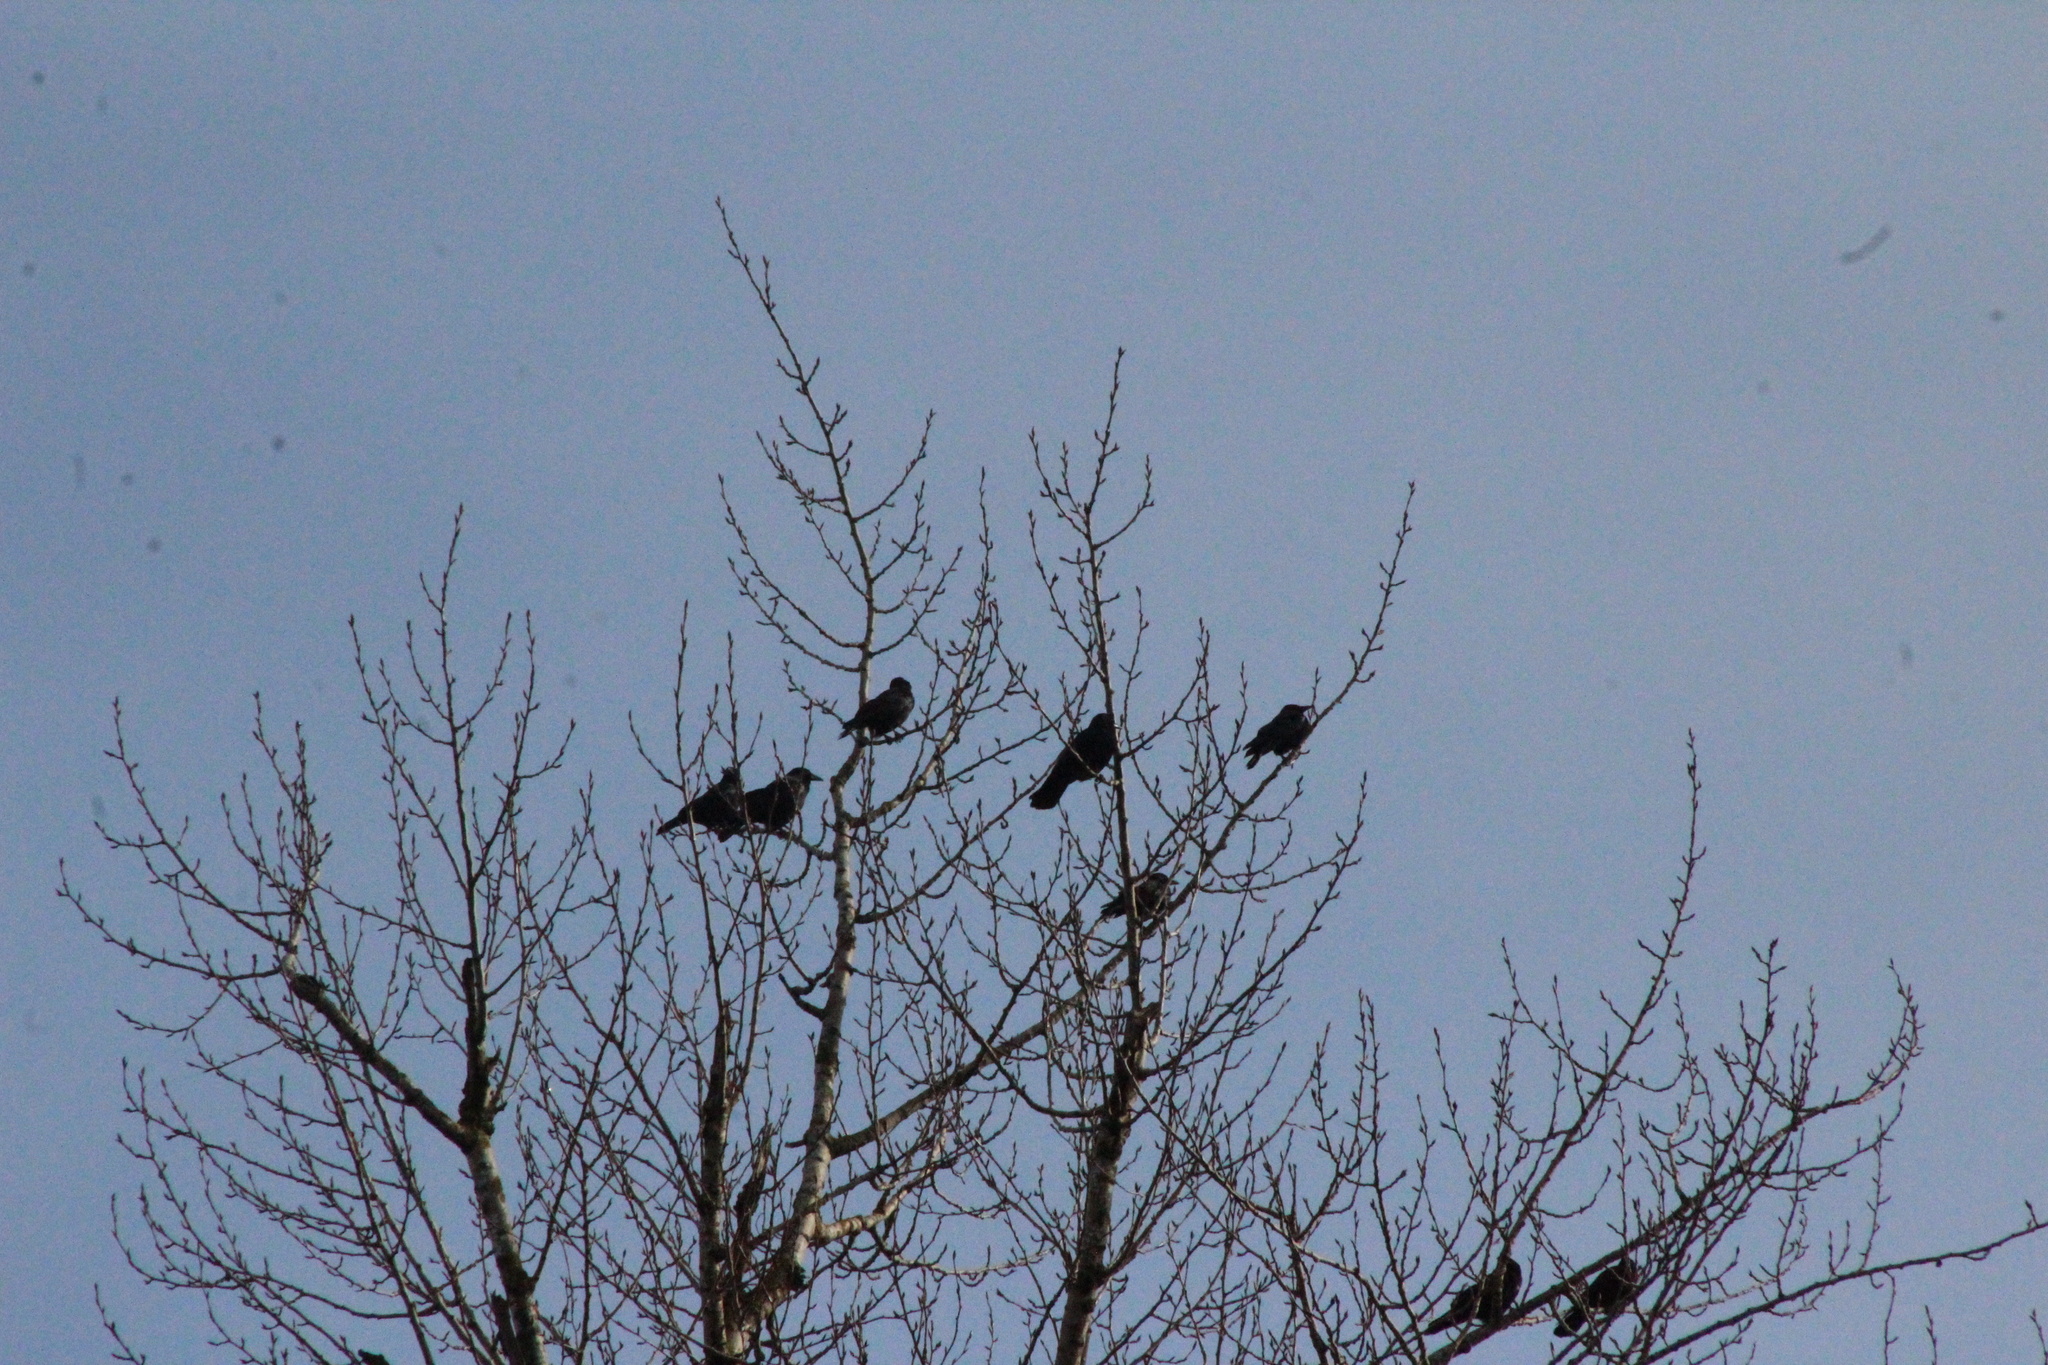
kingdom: Animalia
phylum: Chordata
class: Aves
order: Passeriformes
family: Corvidae
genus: Corvus
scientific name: Corvus brachyrhynchos
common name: American crow
